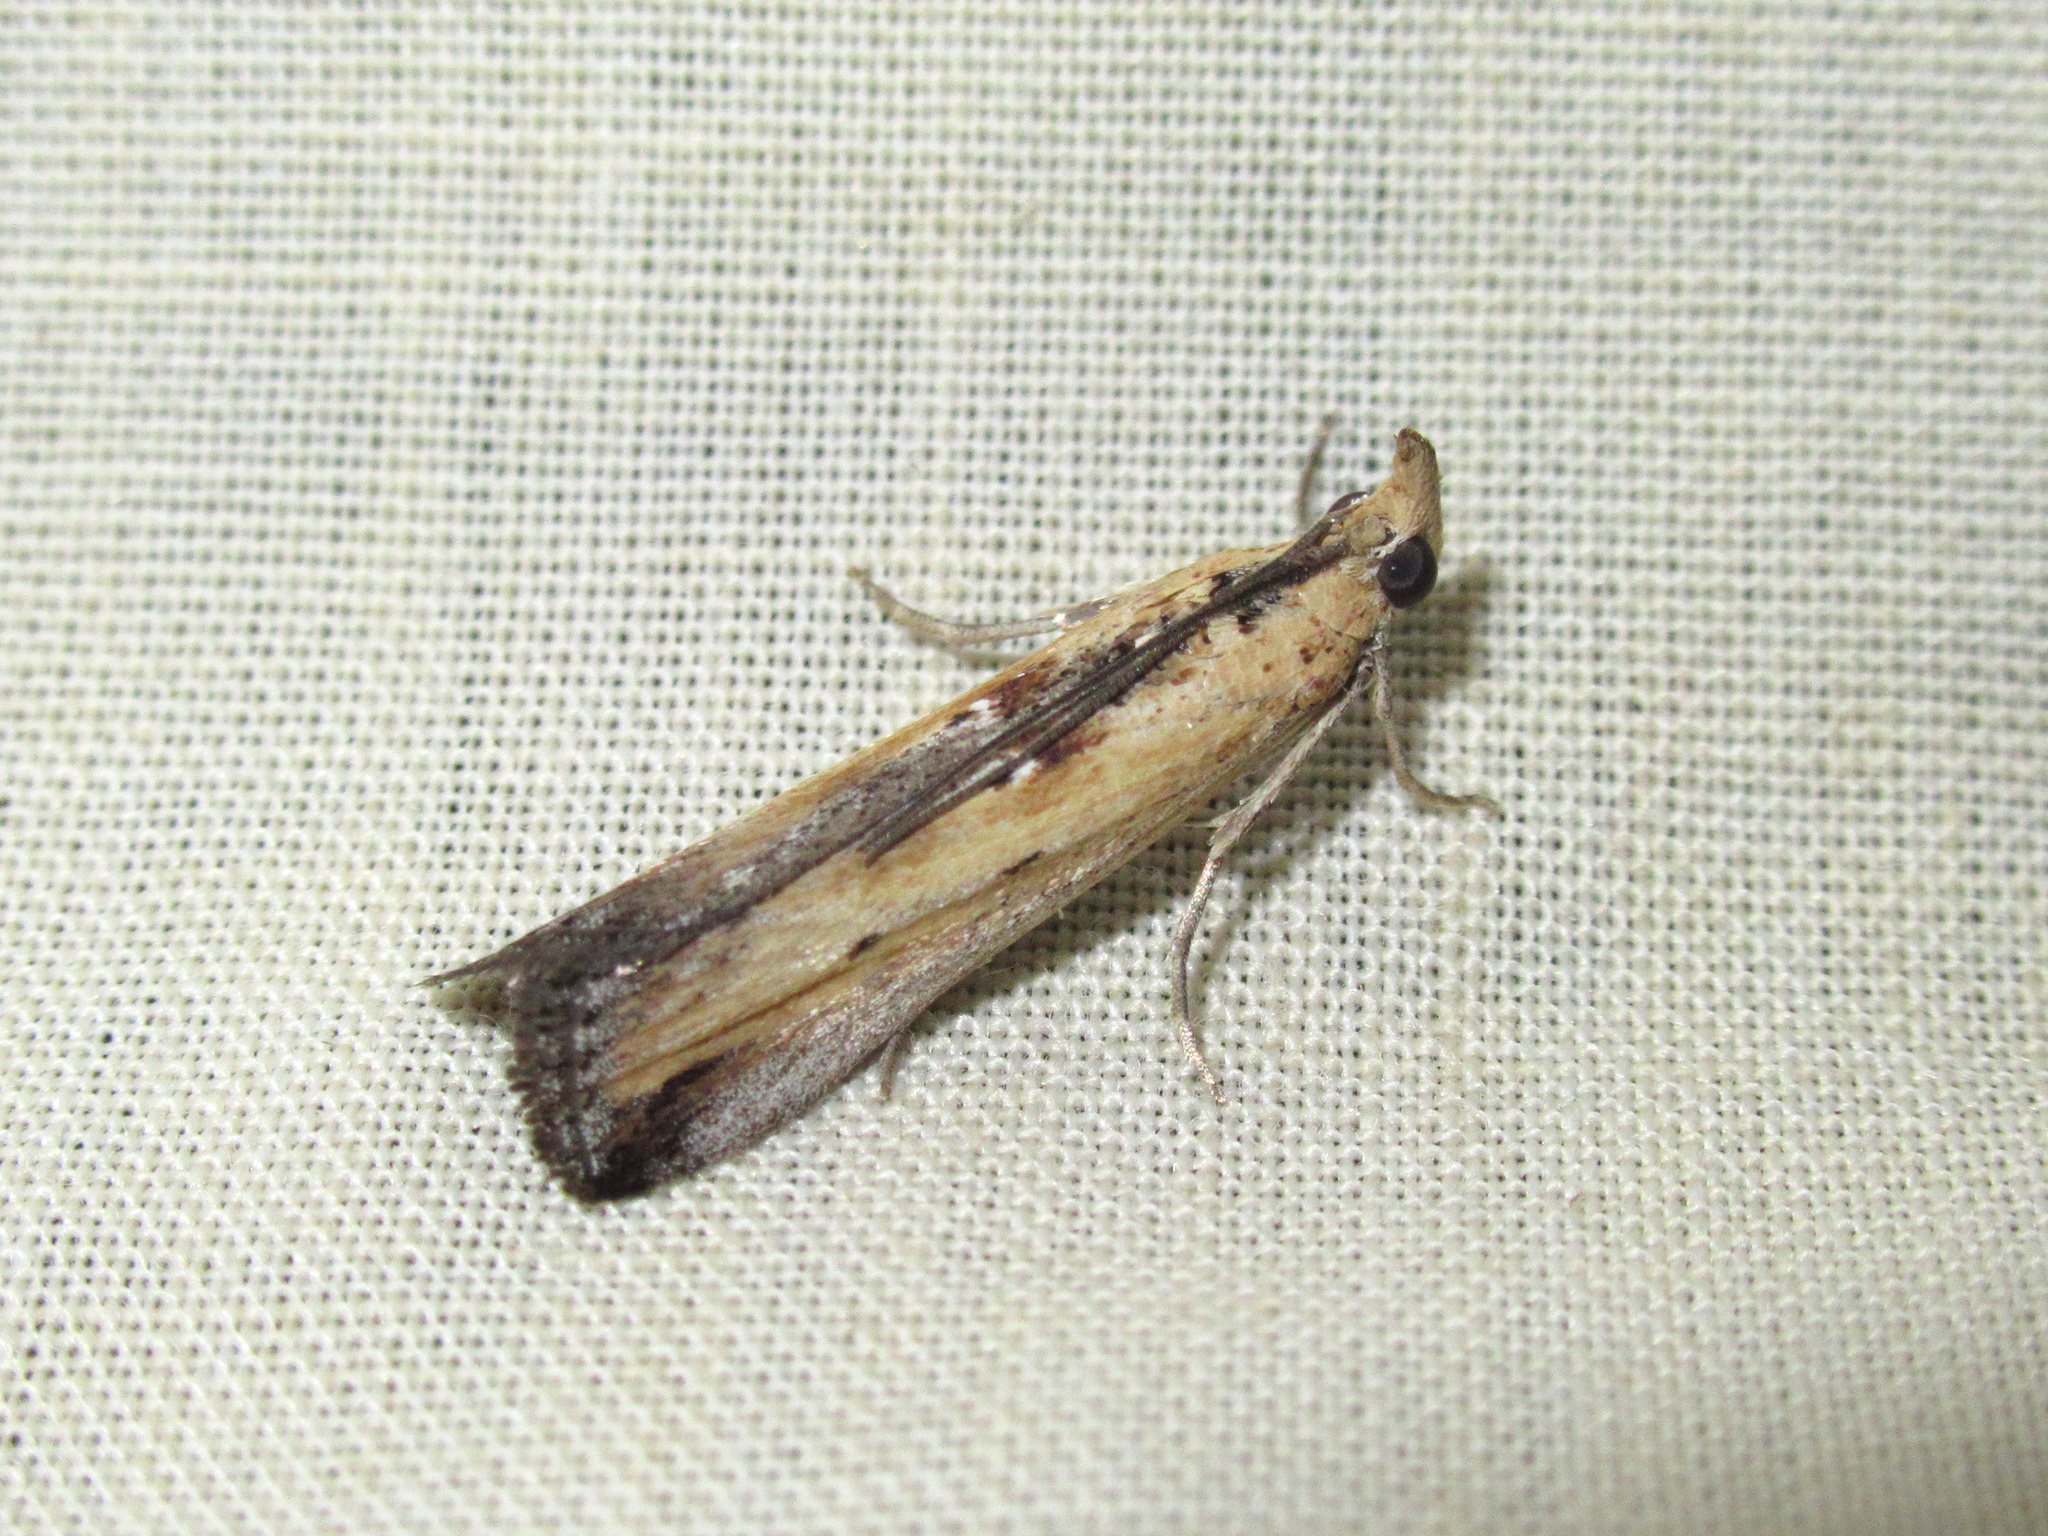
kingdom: Animalia
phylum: Arthropoda
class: Insecta
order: Lepidoptera
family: Pyralidae
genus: Morosaphycita
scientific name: Morosaphycita oculiferella
